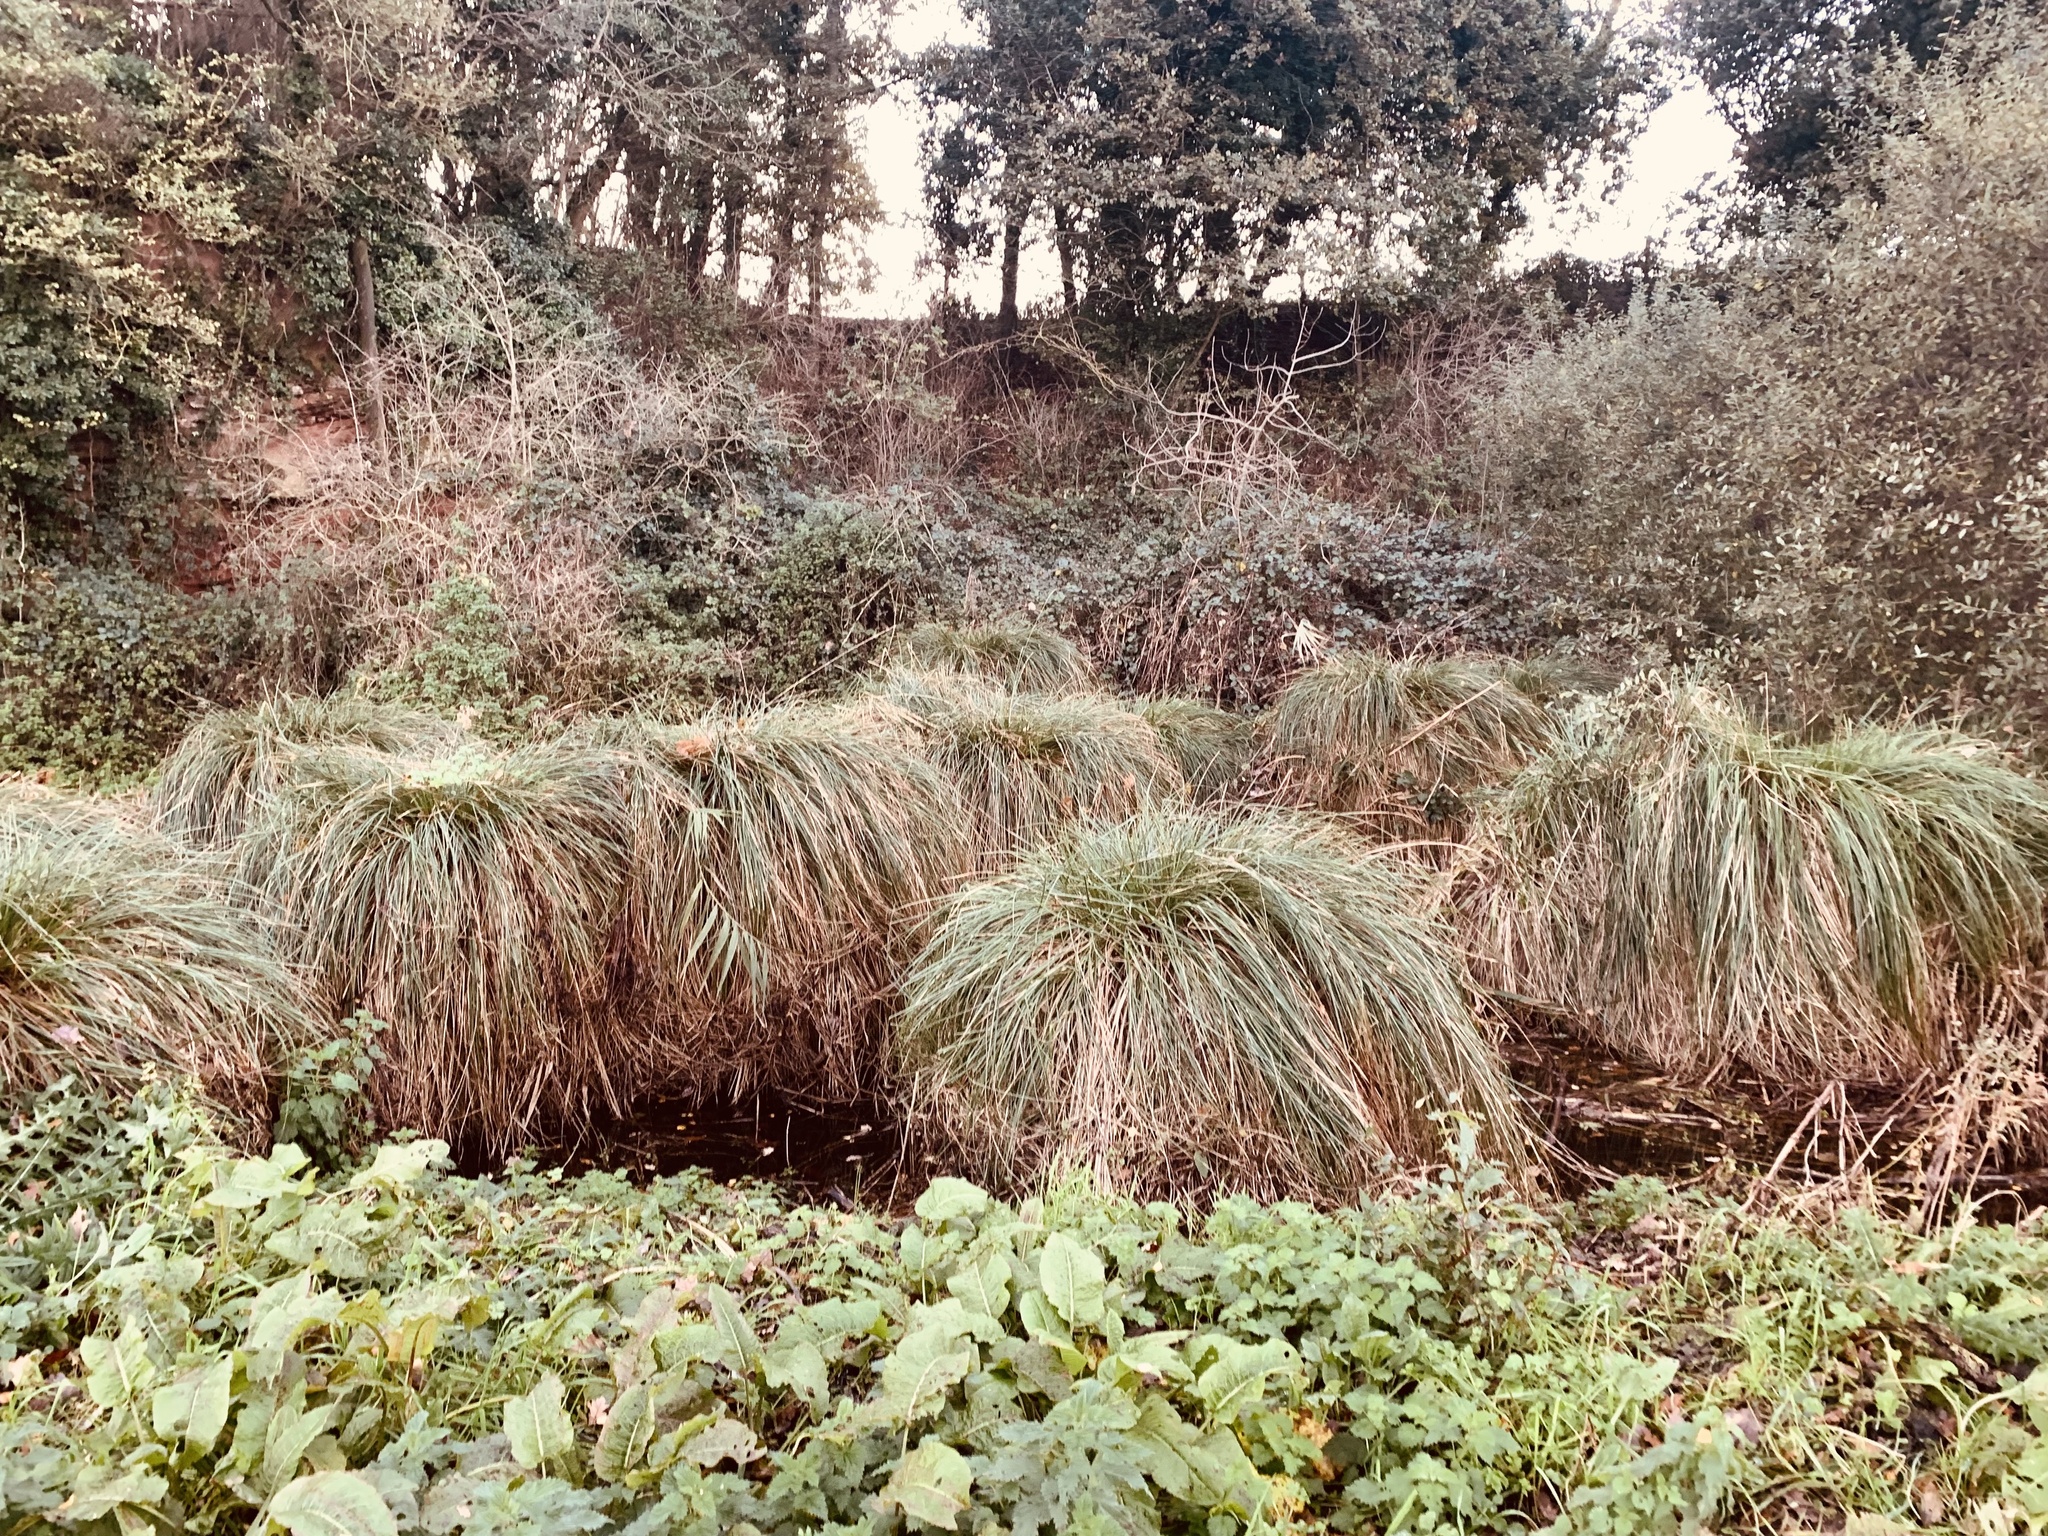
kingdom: Plantae
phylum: Tracheophyta
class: Liliopsida
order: Poales
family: Cyperaceae
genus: Carex
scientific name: Carex paniculata
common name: Greater tussock-sedge
